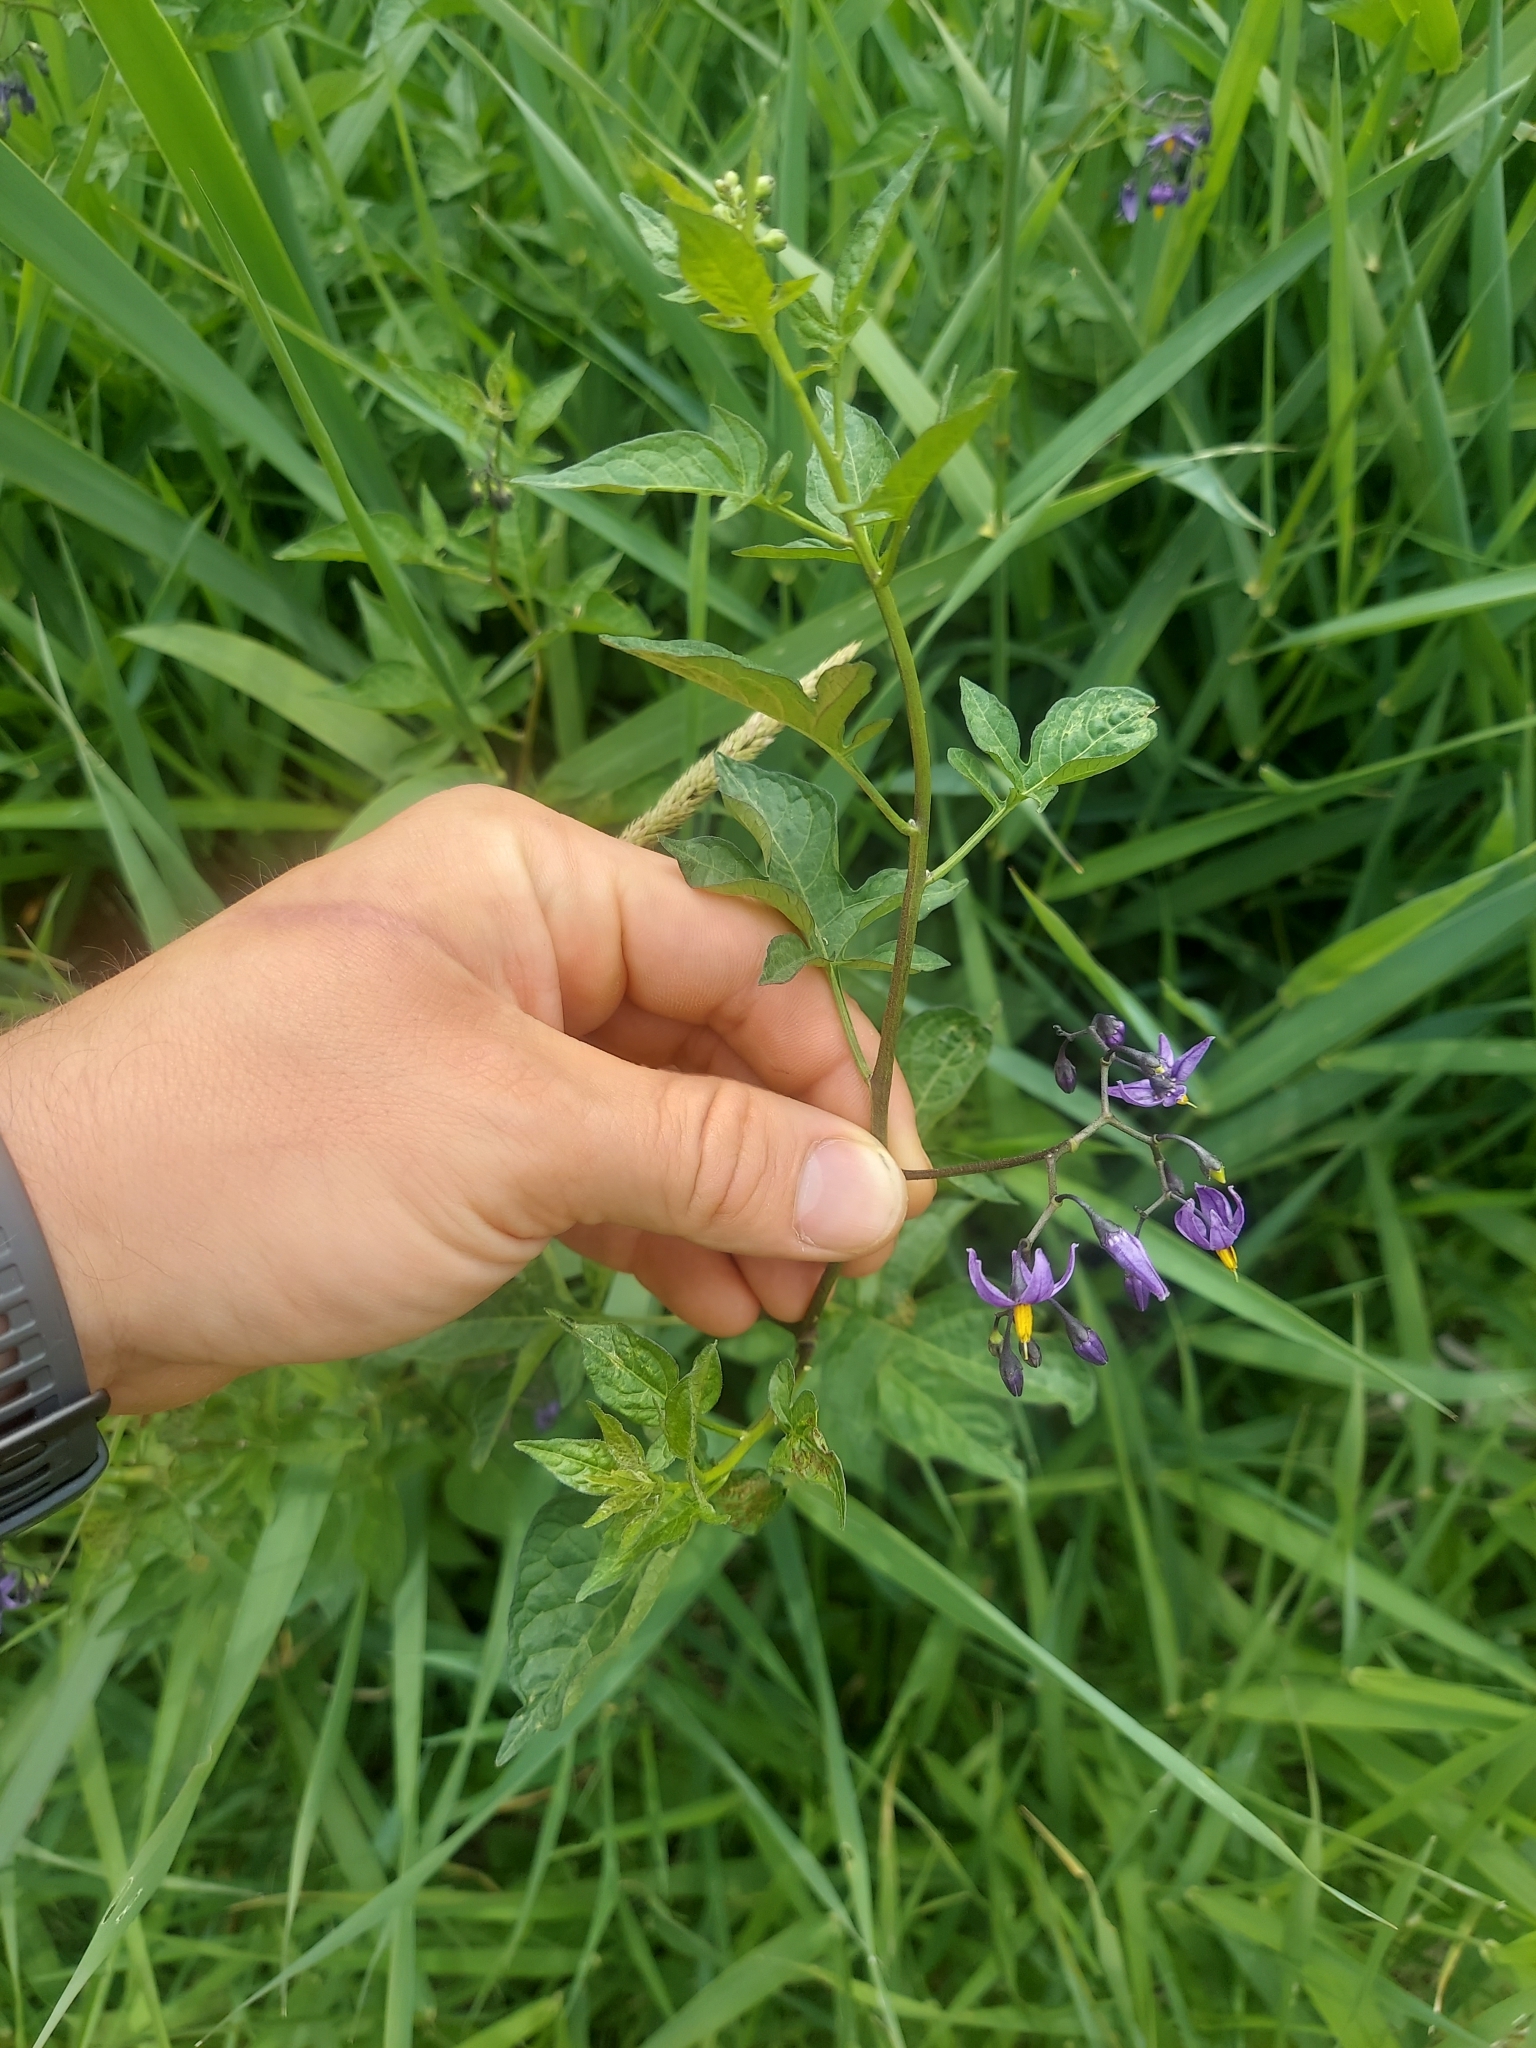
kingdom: Plantae
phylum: Tracheophyta
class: Magnoliopsida
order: Solanales
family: Solanaceae
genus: Solanum
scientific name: Solanum dulcamara
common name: Climbing nightshade
